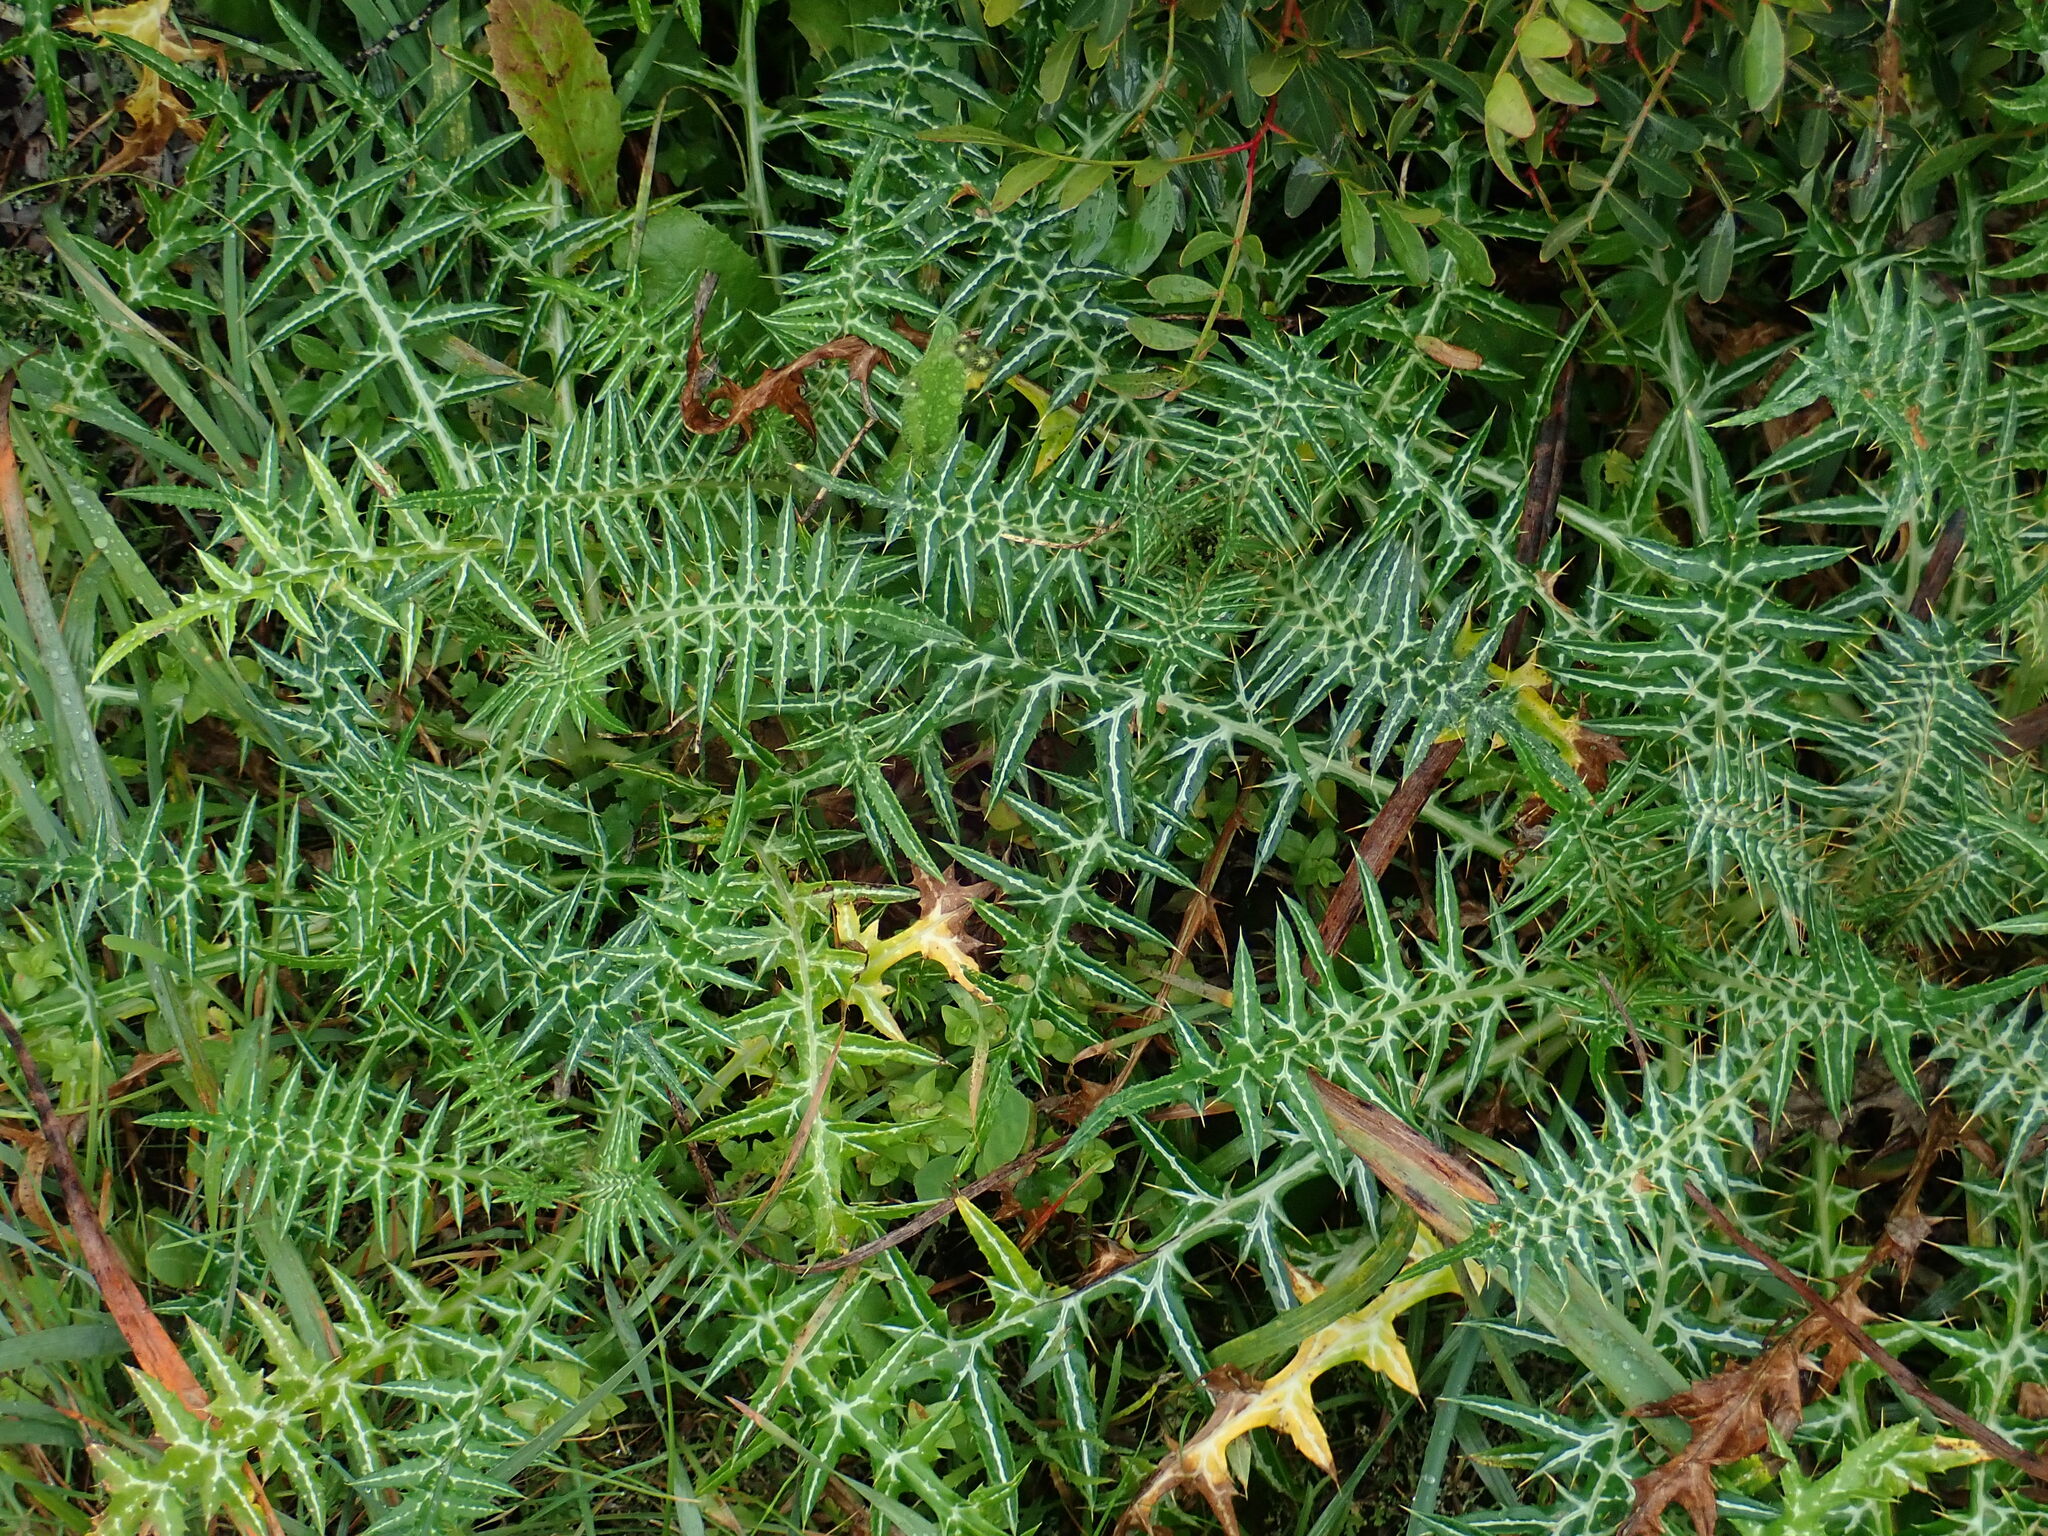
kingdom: Plantae
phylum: Tracheophyta
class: Magnoliopsida
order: Asterales
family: Asteraceae
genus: Galactites
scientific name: Galactites tomentosa
